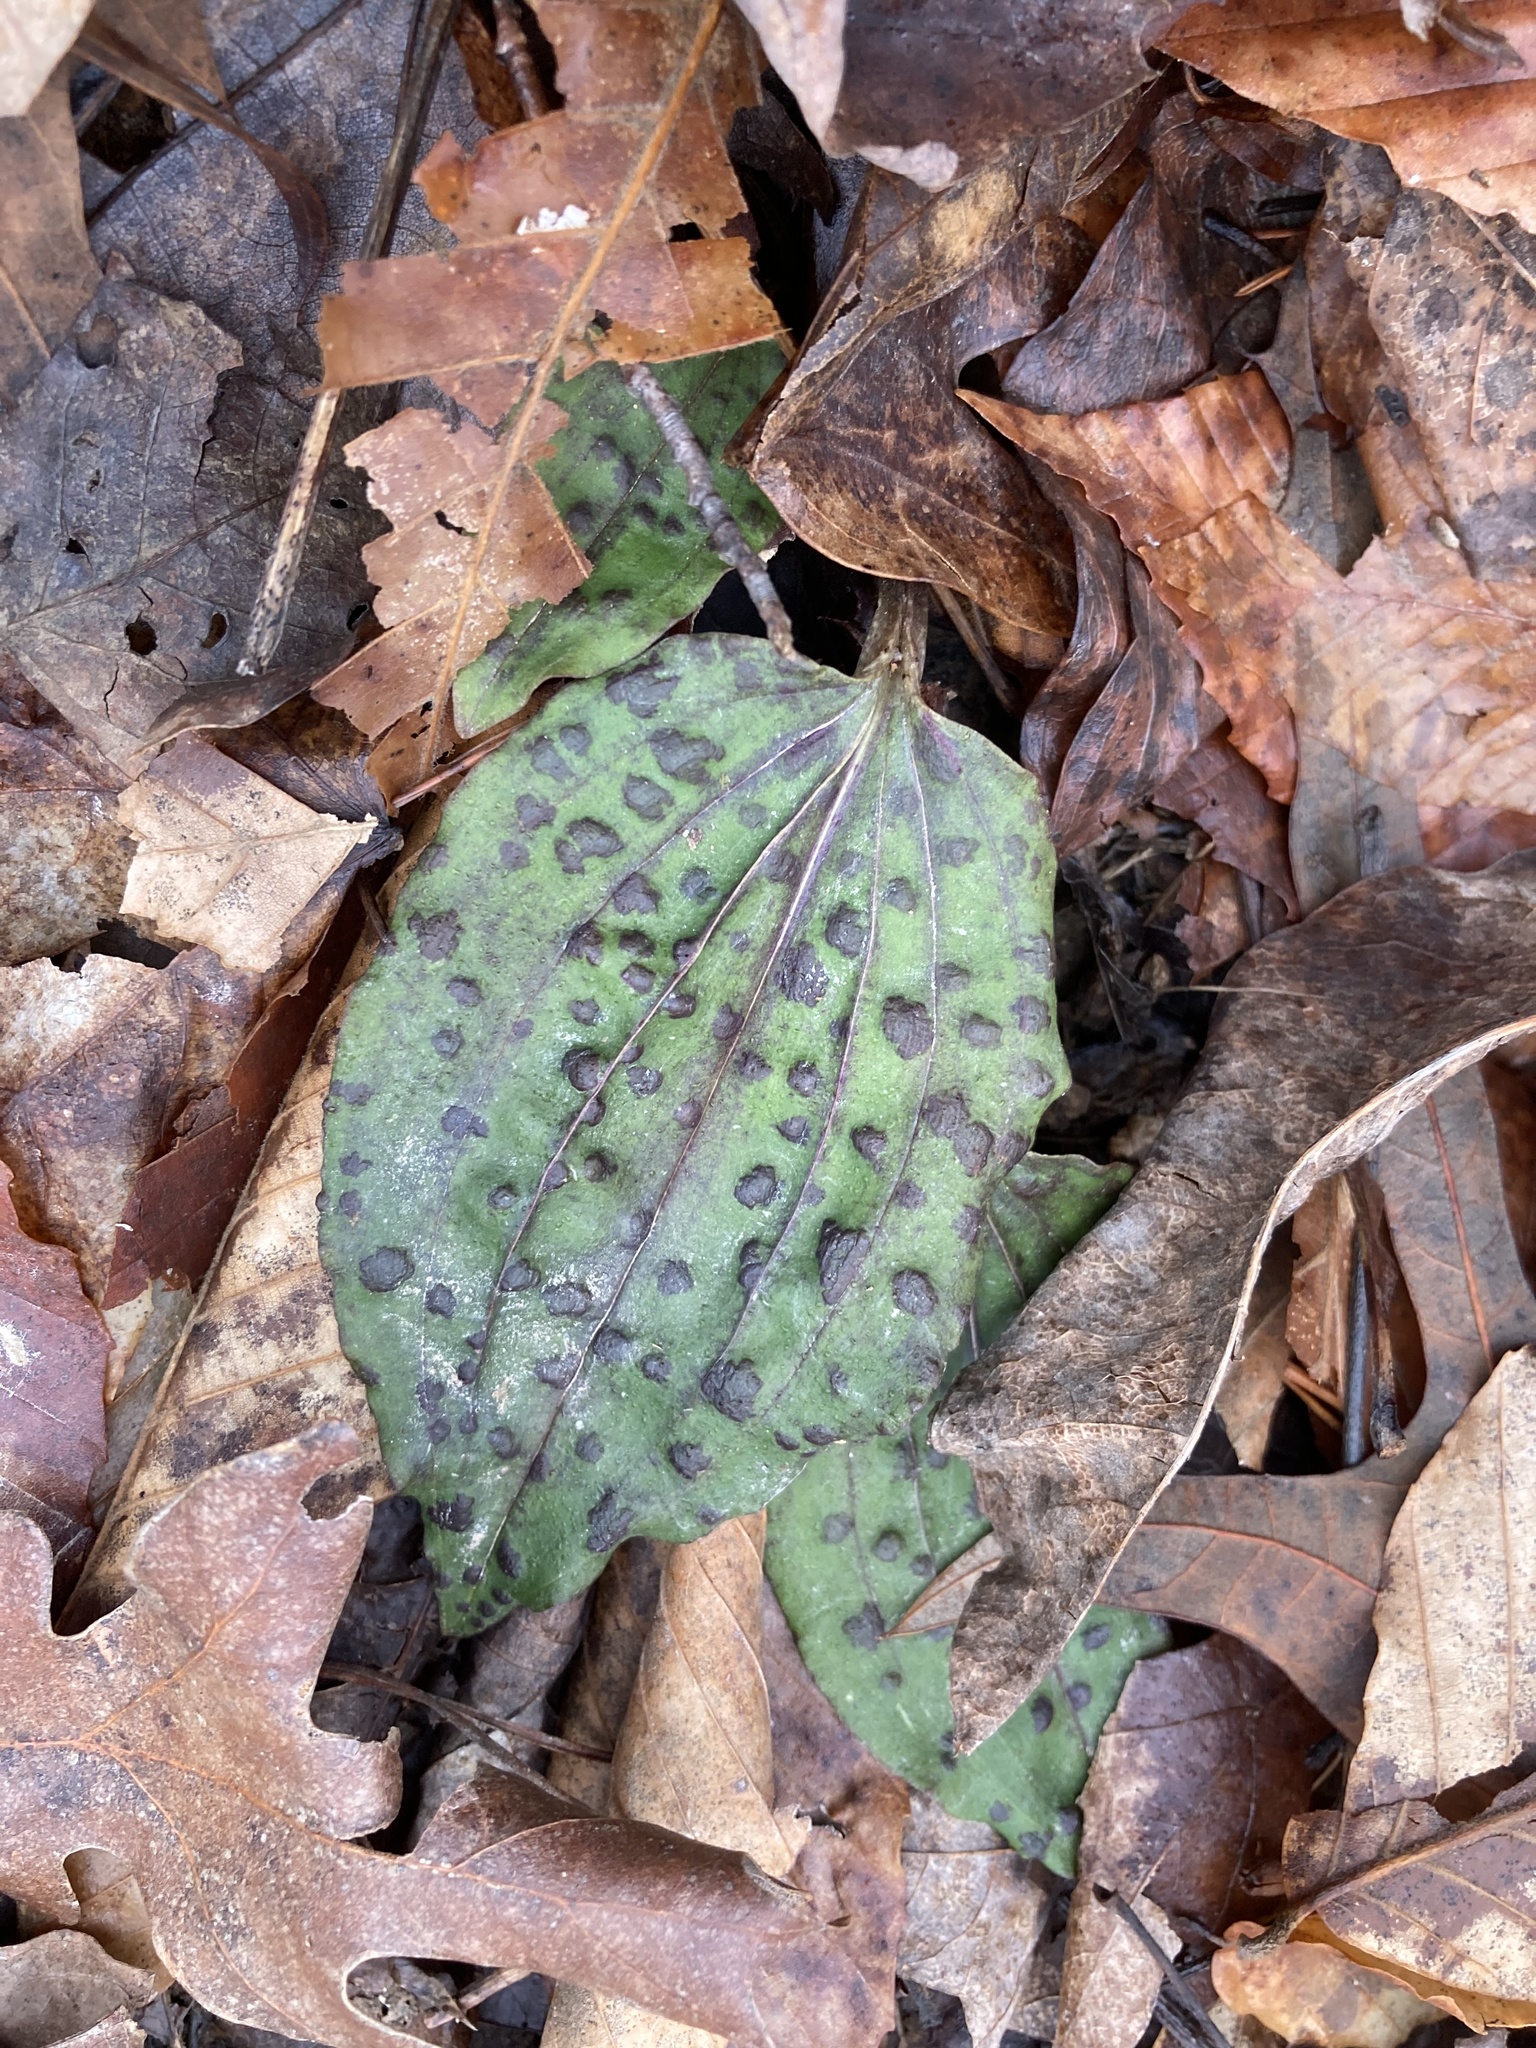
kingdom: Plantae
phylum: Tracheophyta
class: Liliopsida
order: Asparagales
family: Orchidaceae
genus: Tipularia
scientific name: Tipularia discolor
